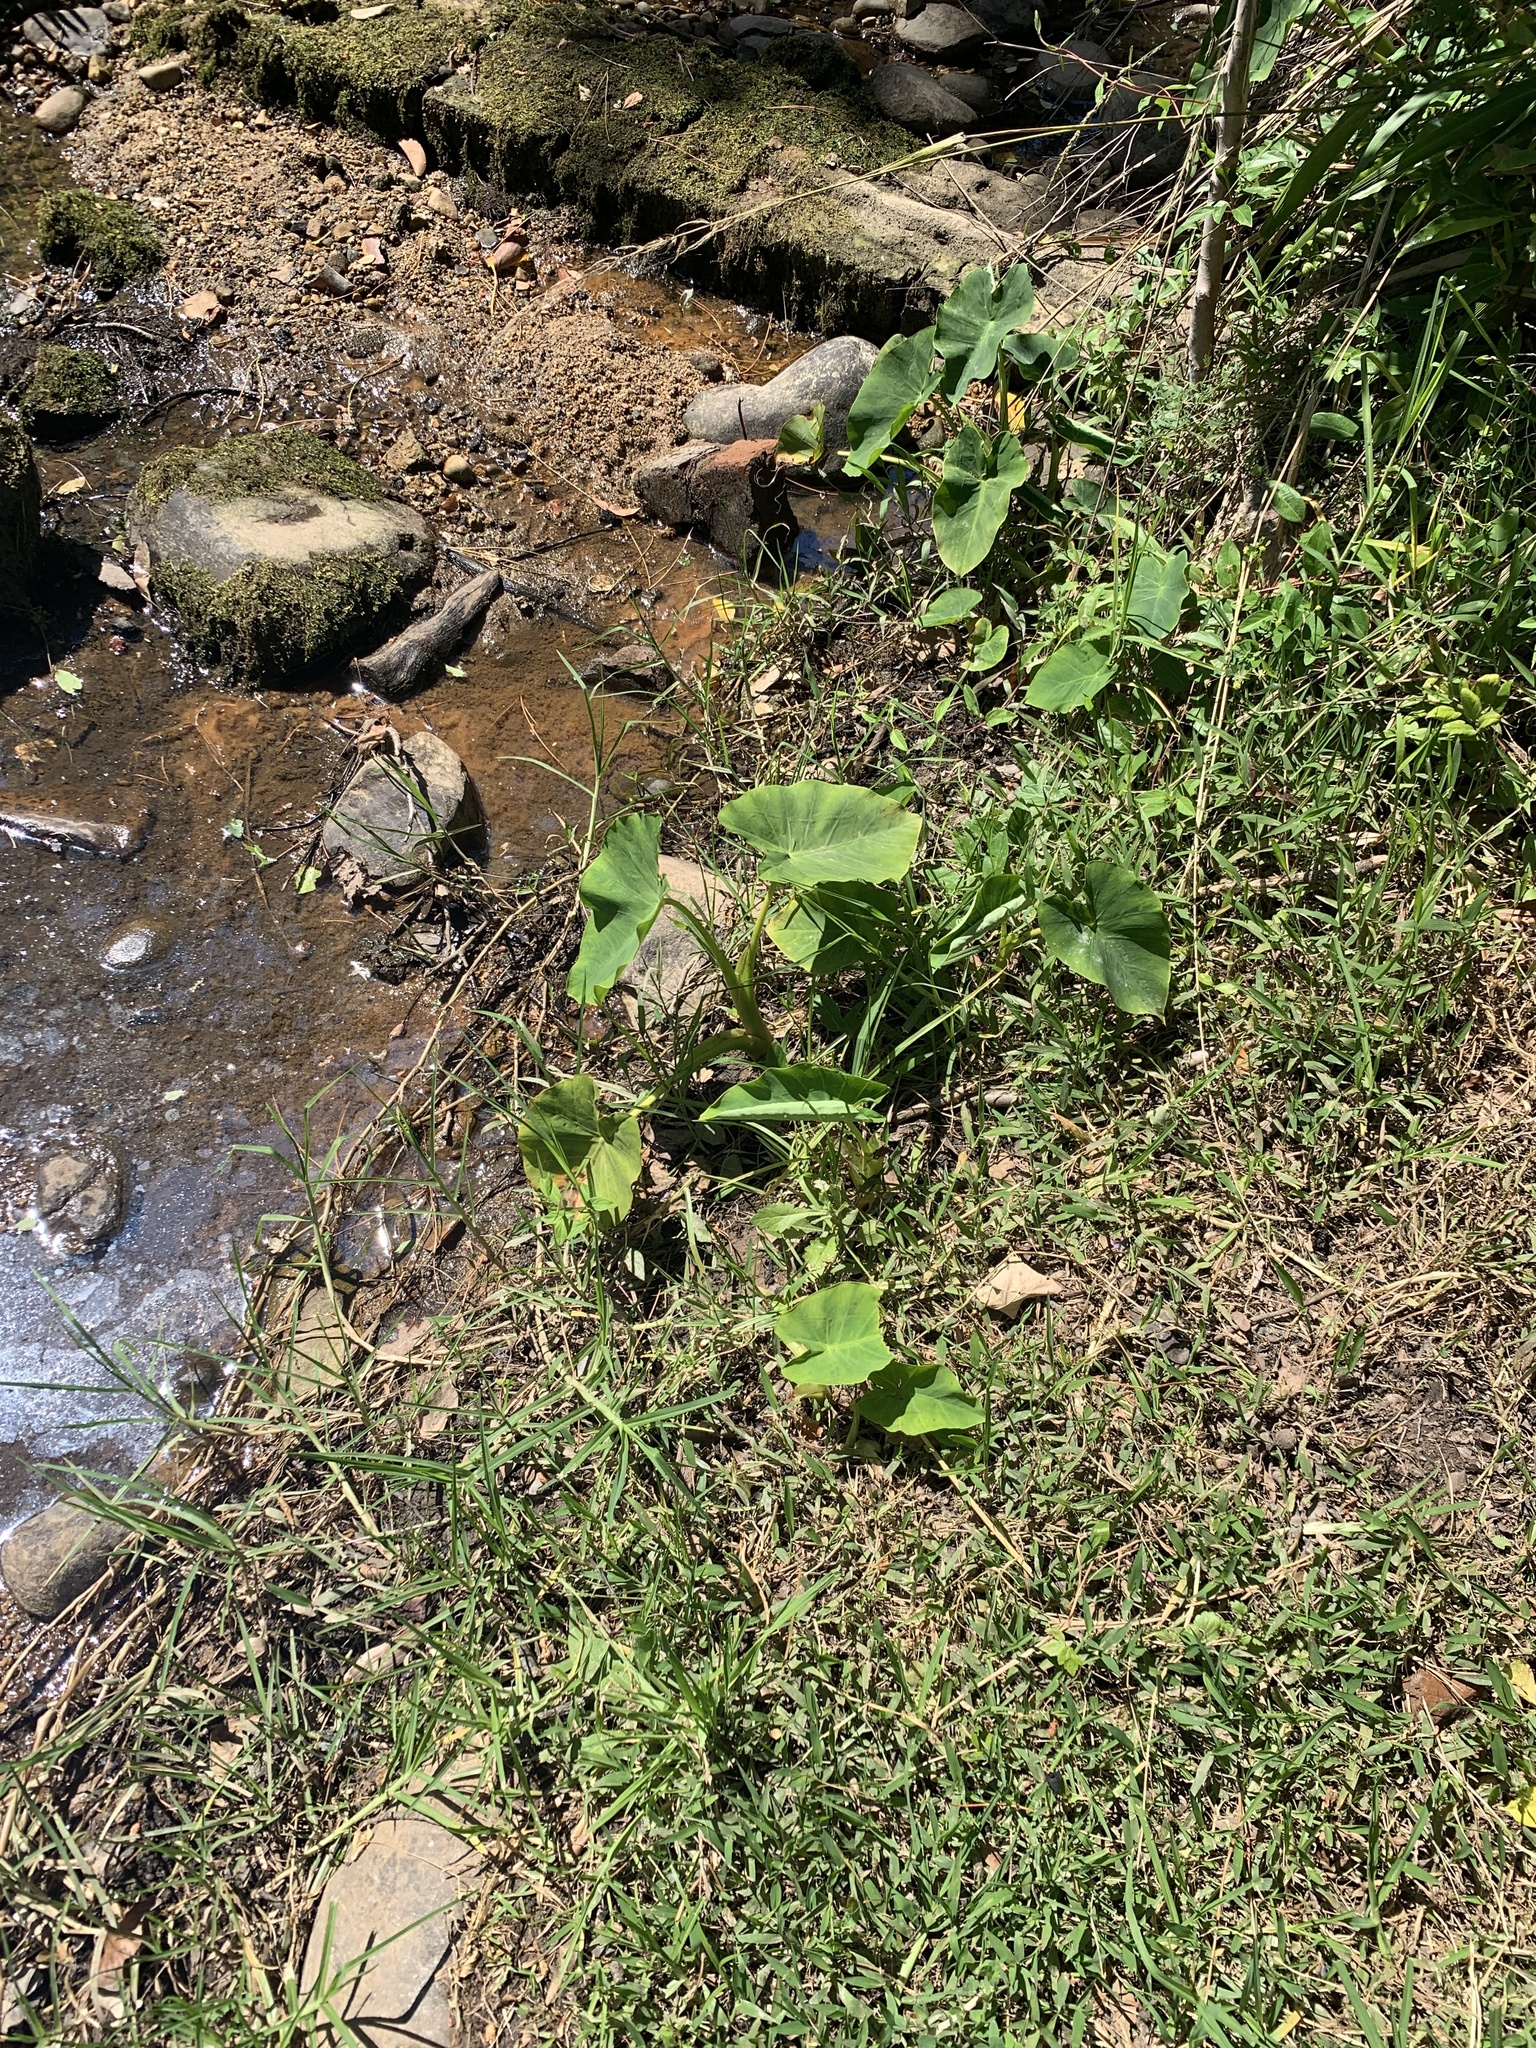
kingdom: Plantae
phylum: Tracheophyta
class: Liliopsida
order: Alismatales
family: Araceae
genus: Colocasia
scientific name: Colocasia esculenta
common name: Taro
